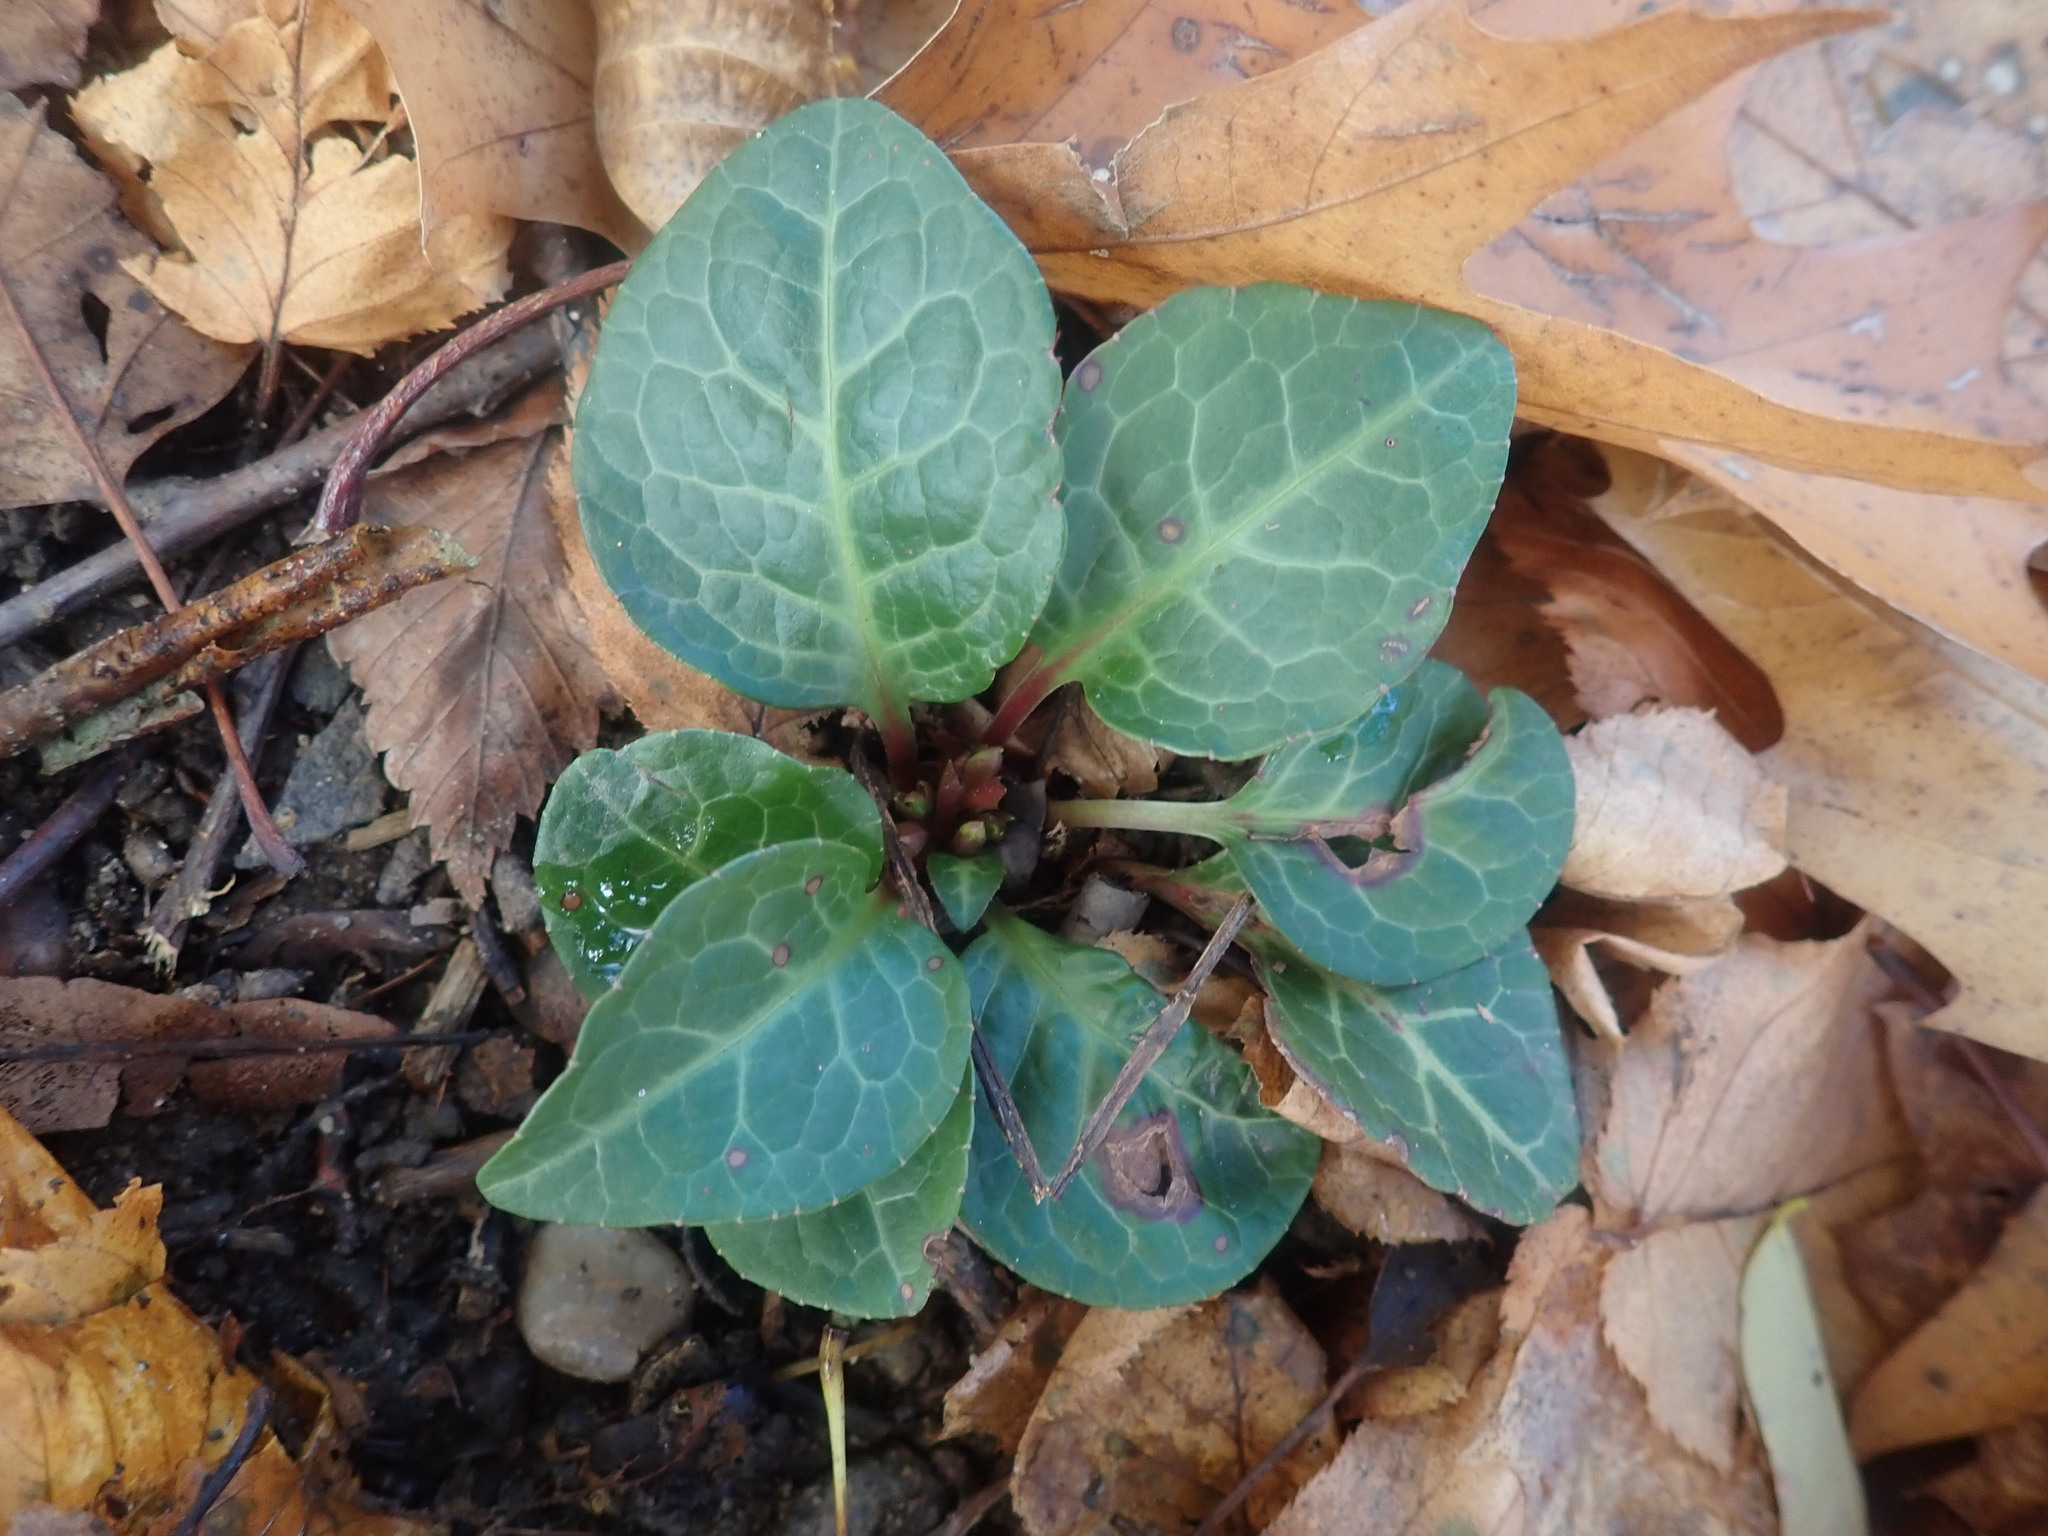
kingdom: Plantae
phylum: Tracheophyta
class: Magnoliopsida
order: Ericales
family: Ericaceae
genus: Pyrola
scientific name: Pyrola americana
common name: American wintergreen
